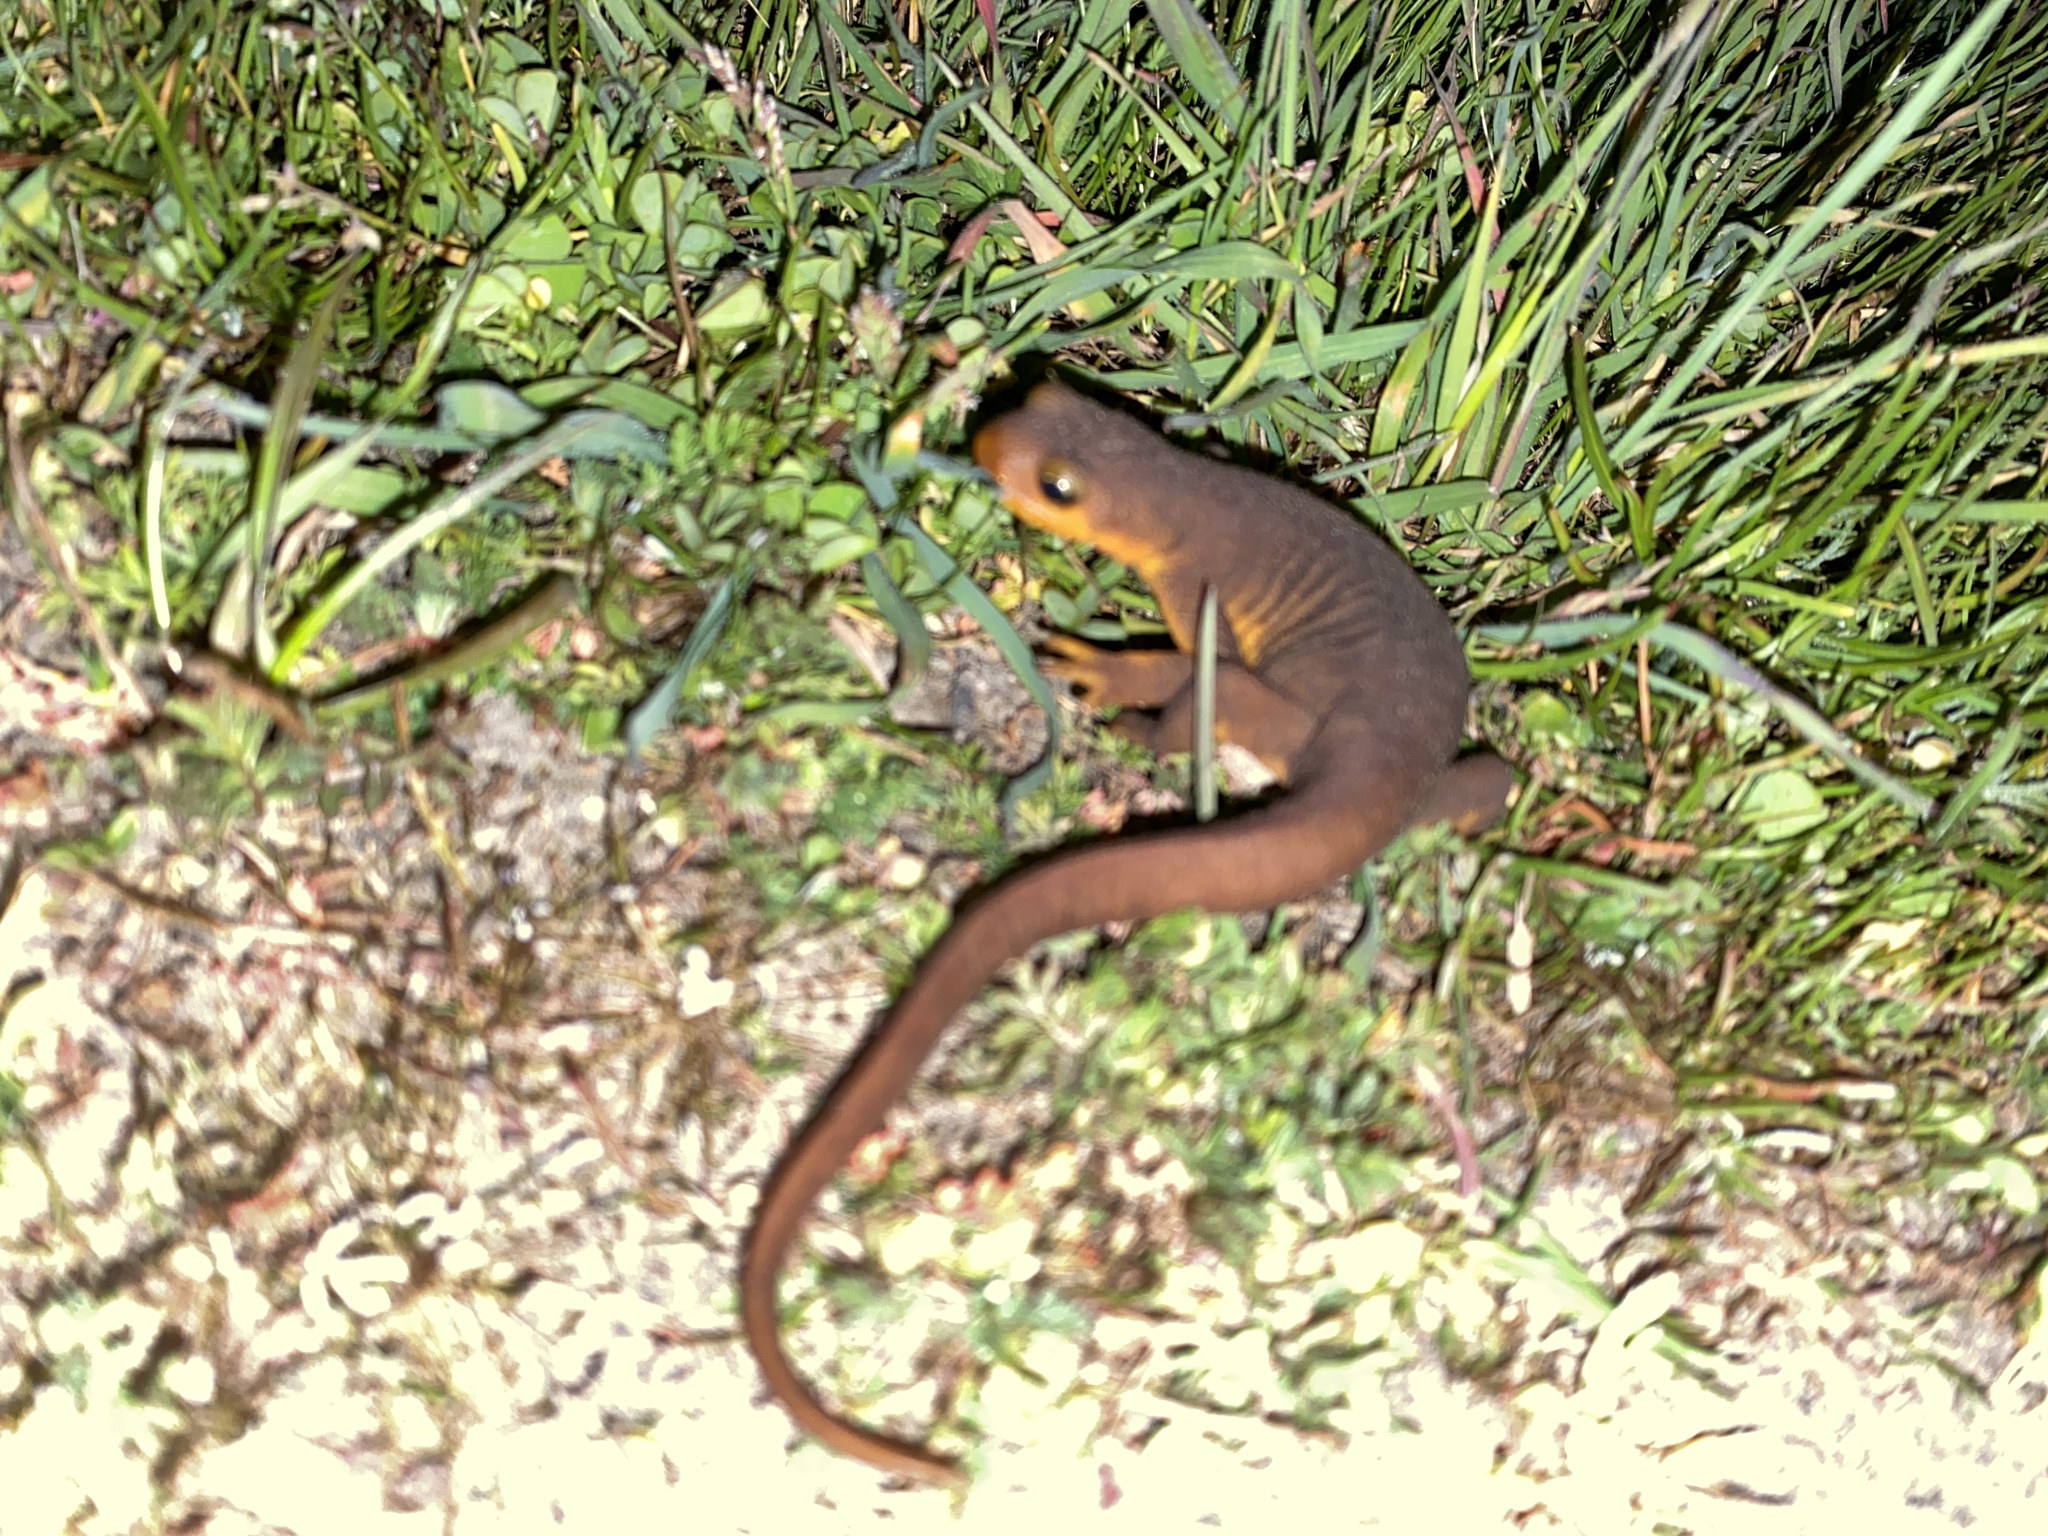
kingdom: Animalia
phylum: Chordata
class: Amphibia
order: Caudata
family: Salamandridae
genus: Taricha
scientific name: Taricha torosa
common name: California newt
